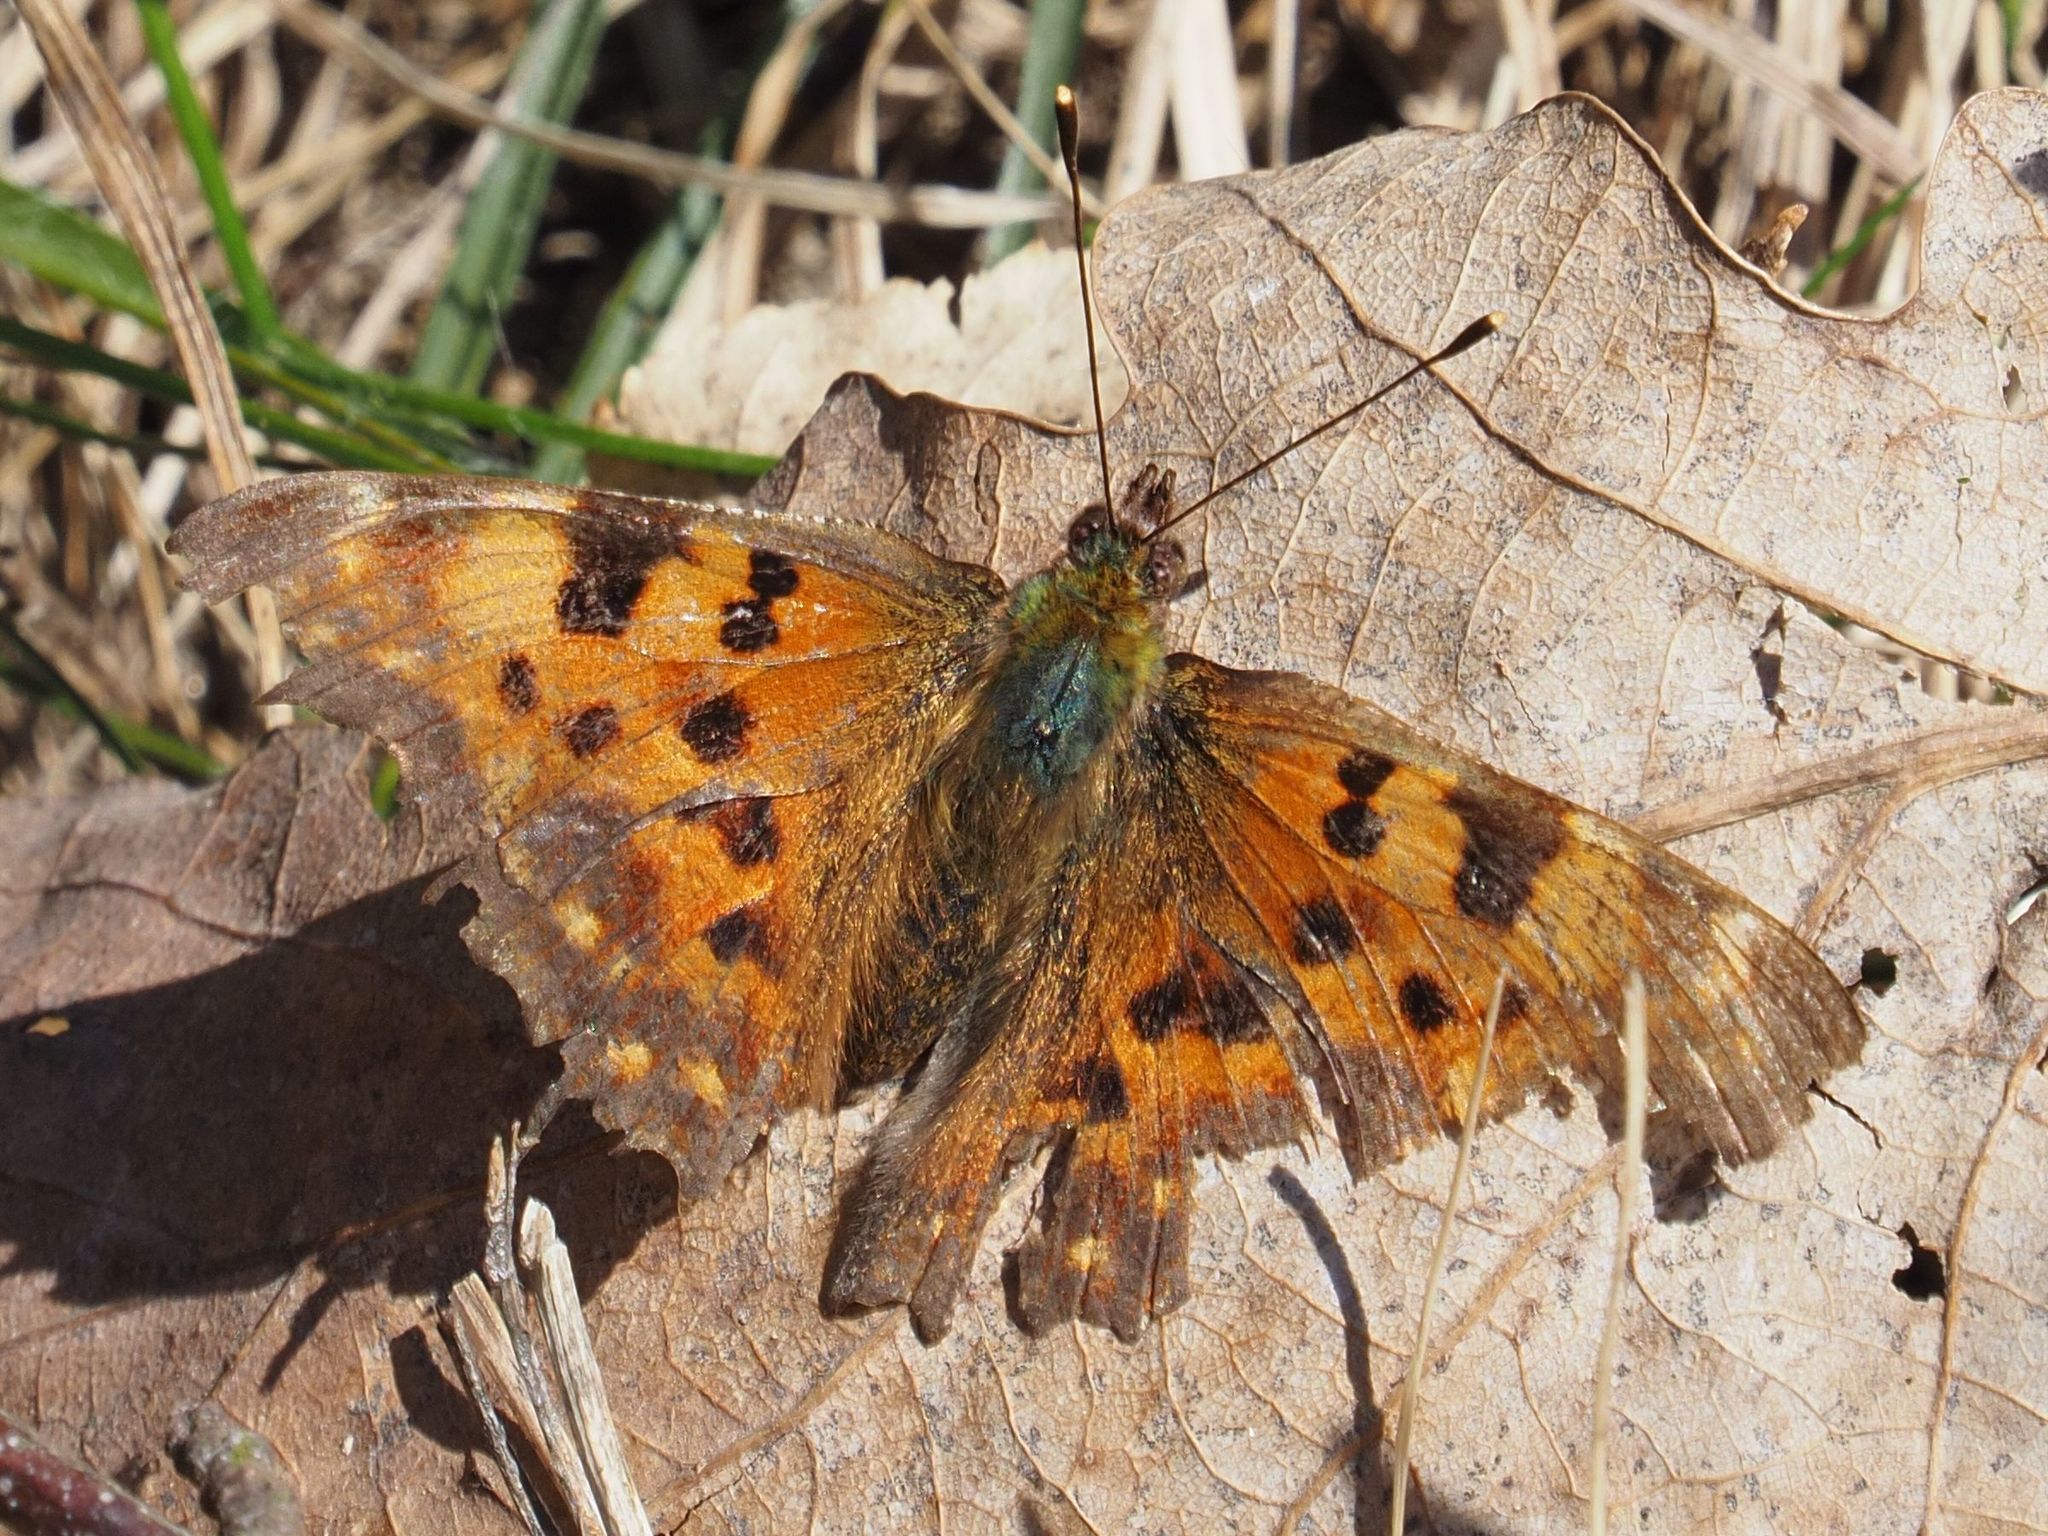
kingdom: Animalia
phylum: Arthropoda
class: Insecta
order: Lepidoptera
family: Nymphalidae
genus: Polygonia
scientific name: Polygonia c-album
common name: Comma
